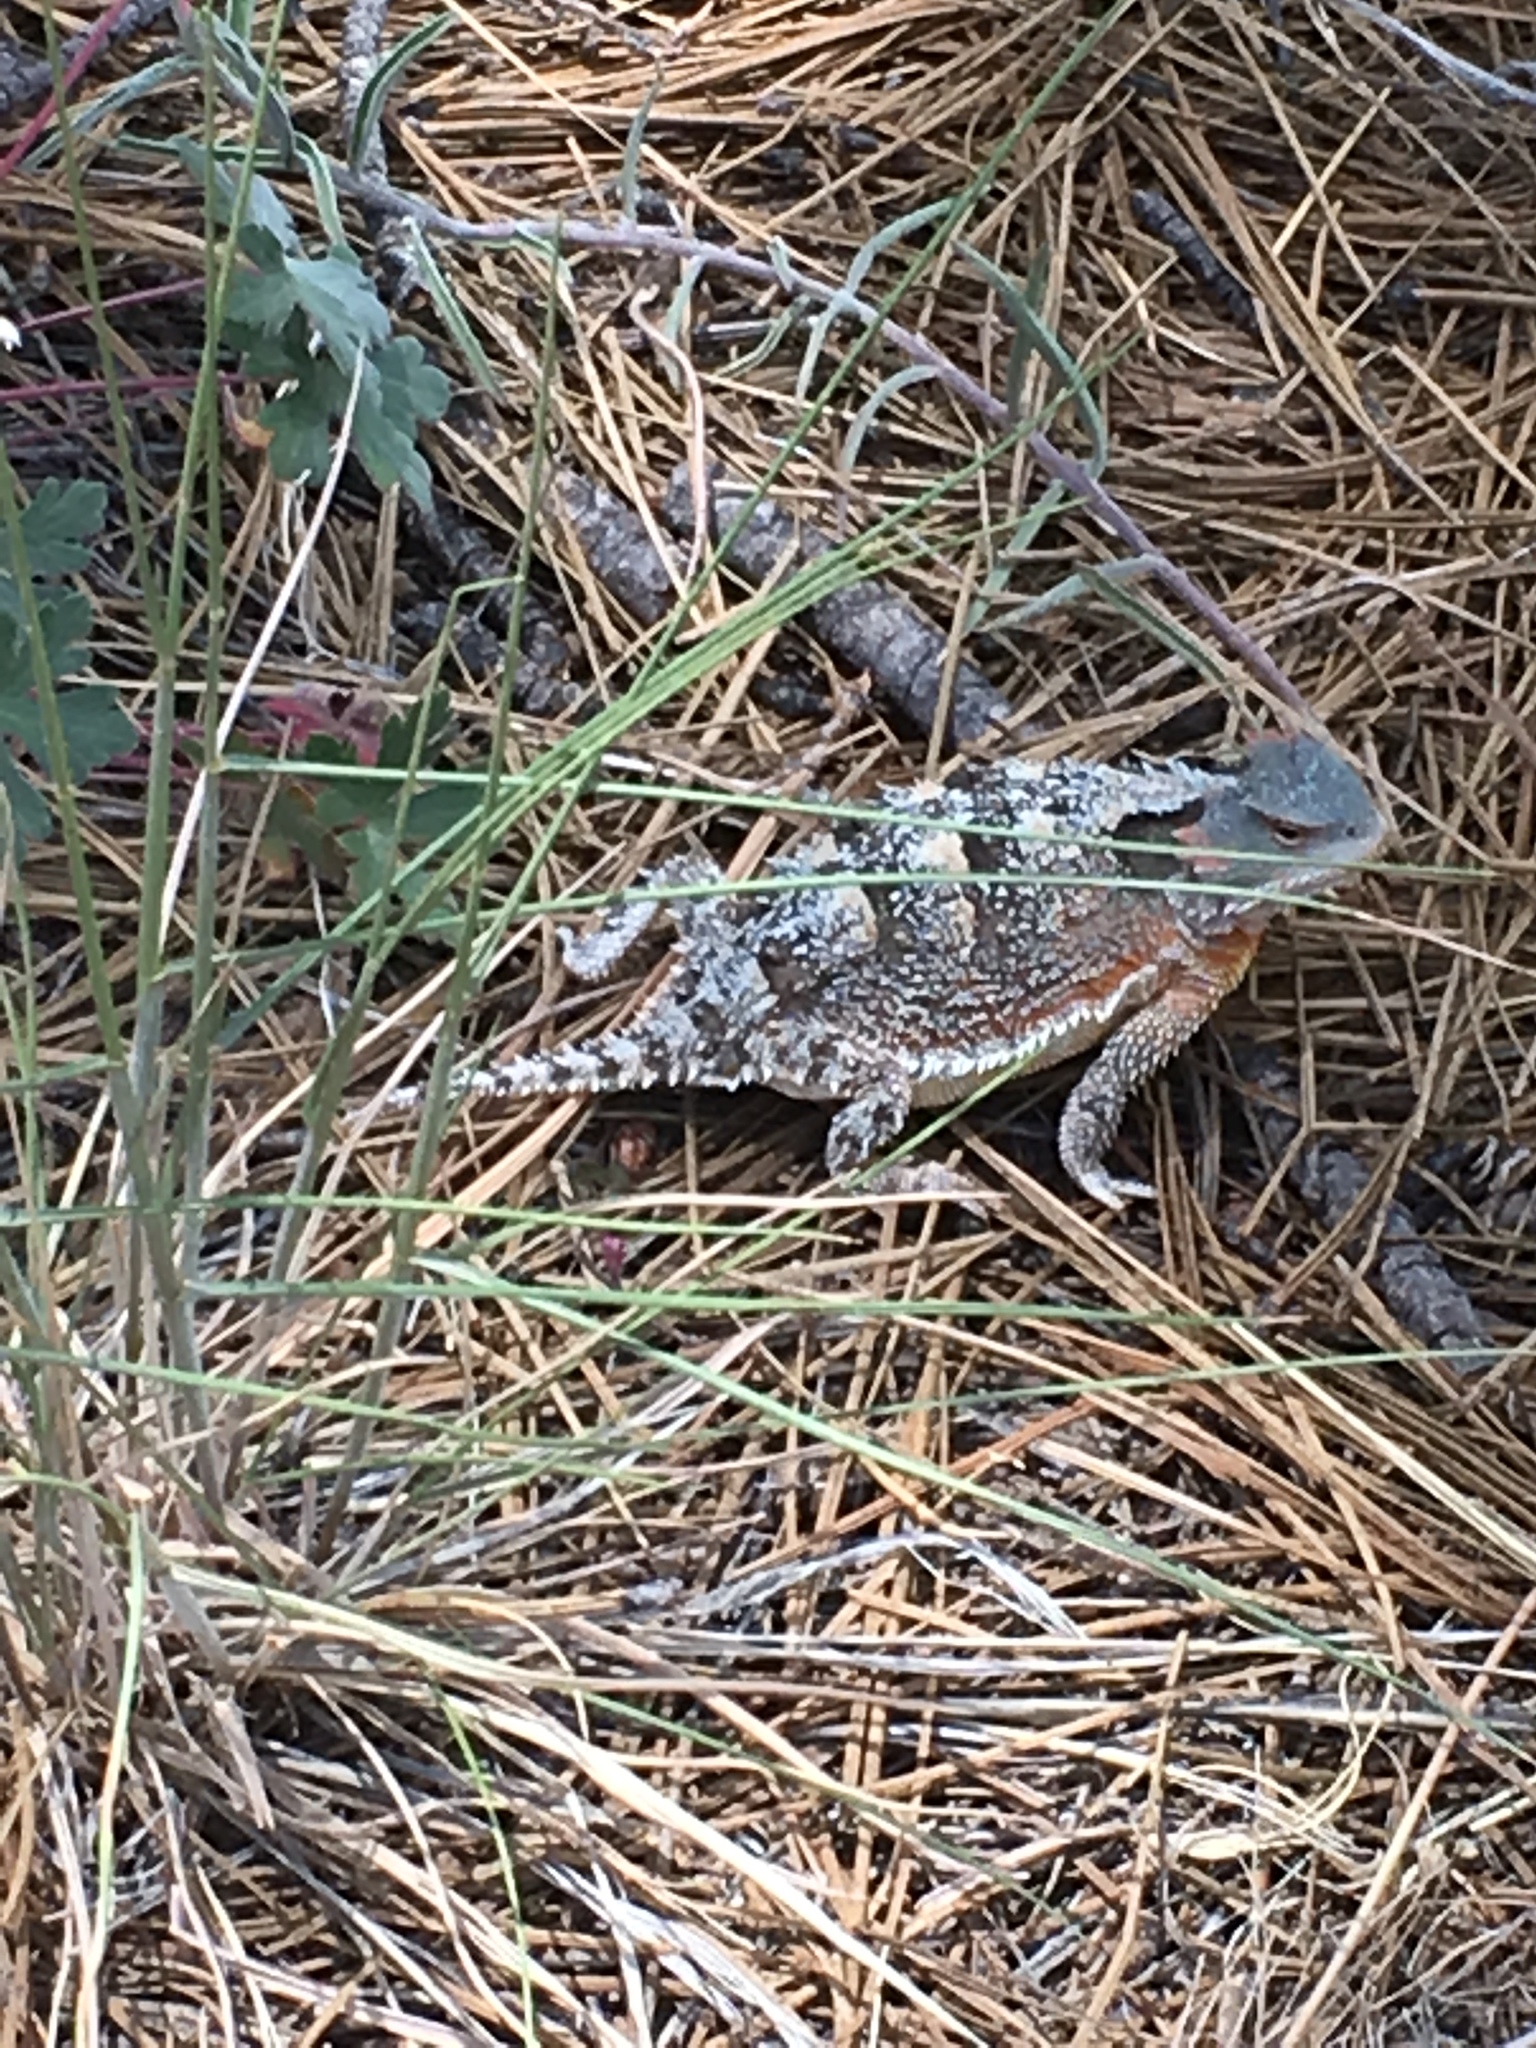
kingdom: Animalia
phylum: Chordata
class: Squamata
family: Phrynosomatidae
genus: Phrynosoma
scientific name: Phrynosoma hernandesi
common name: Greater short-horned lizard
